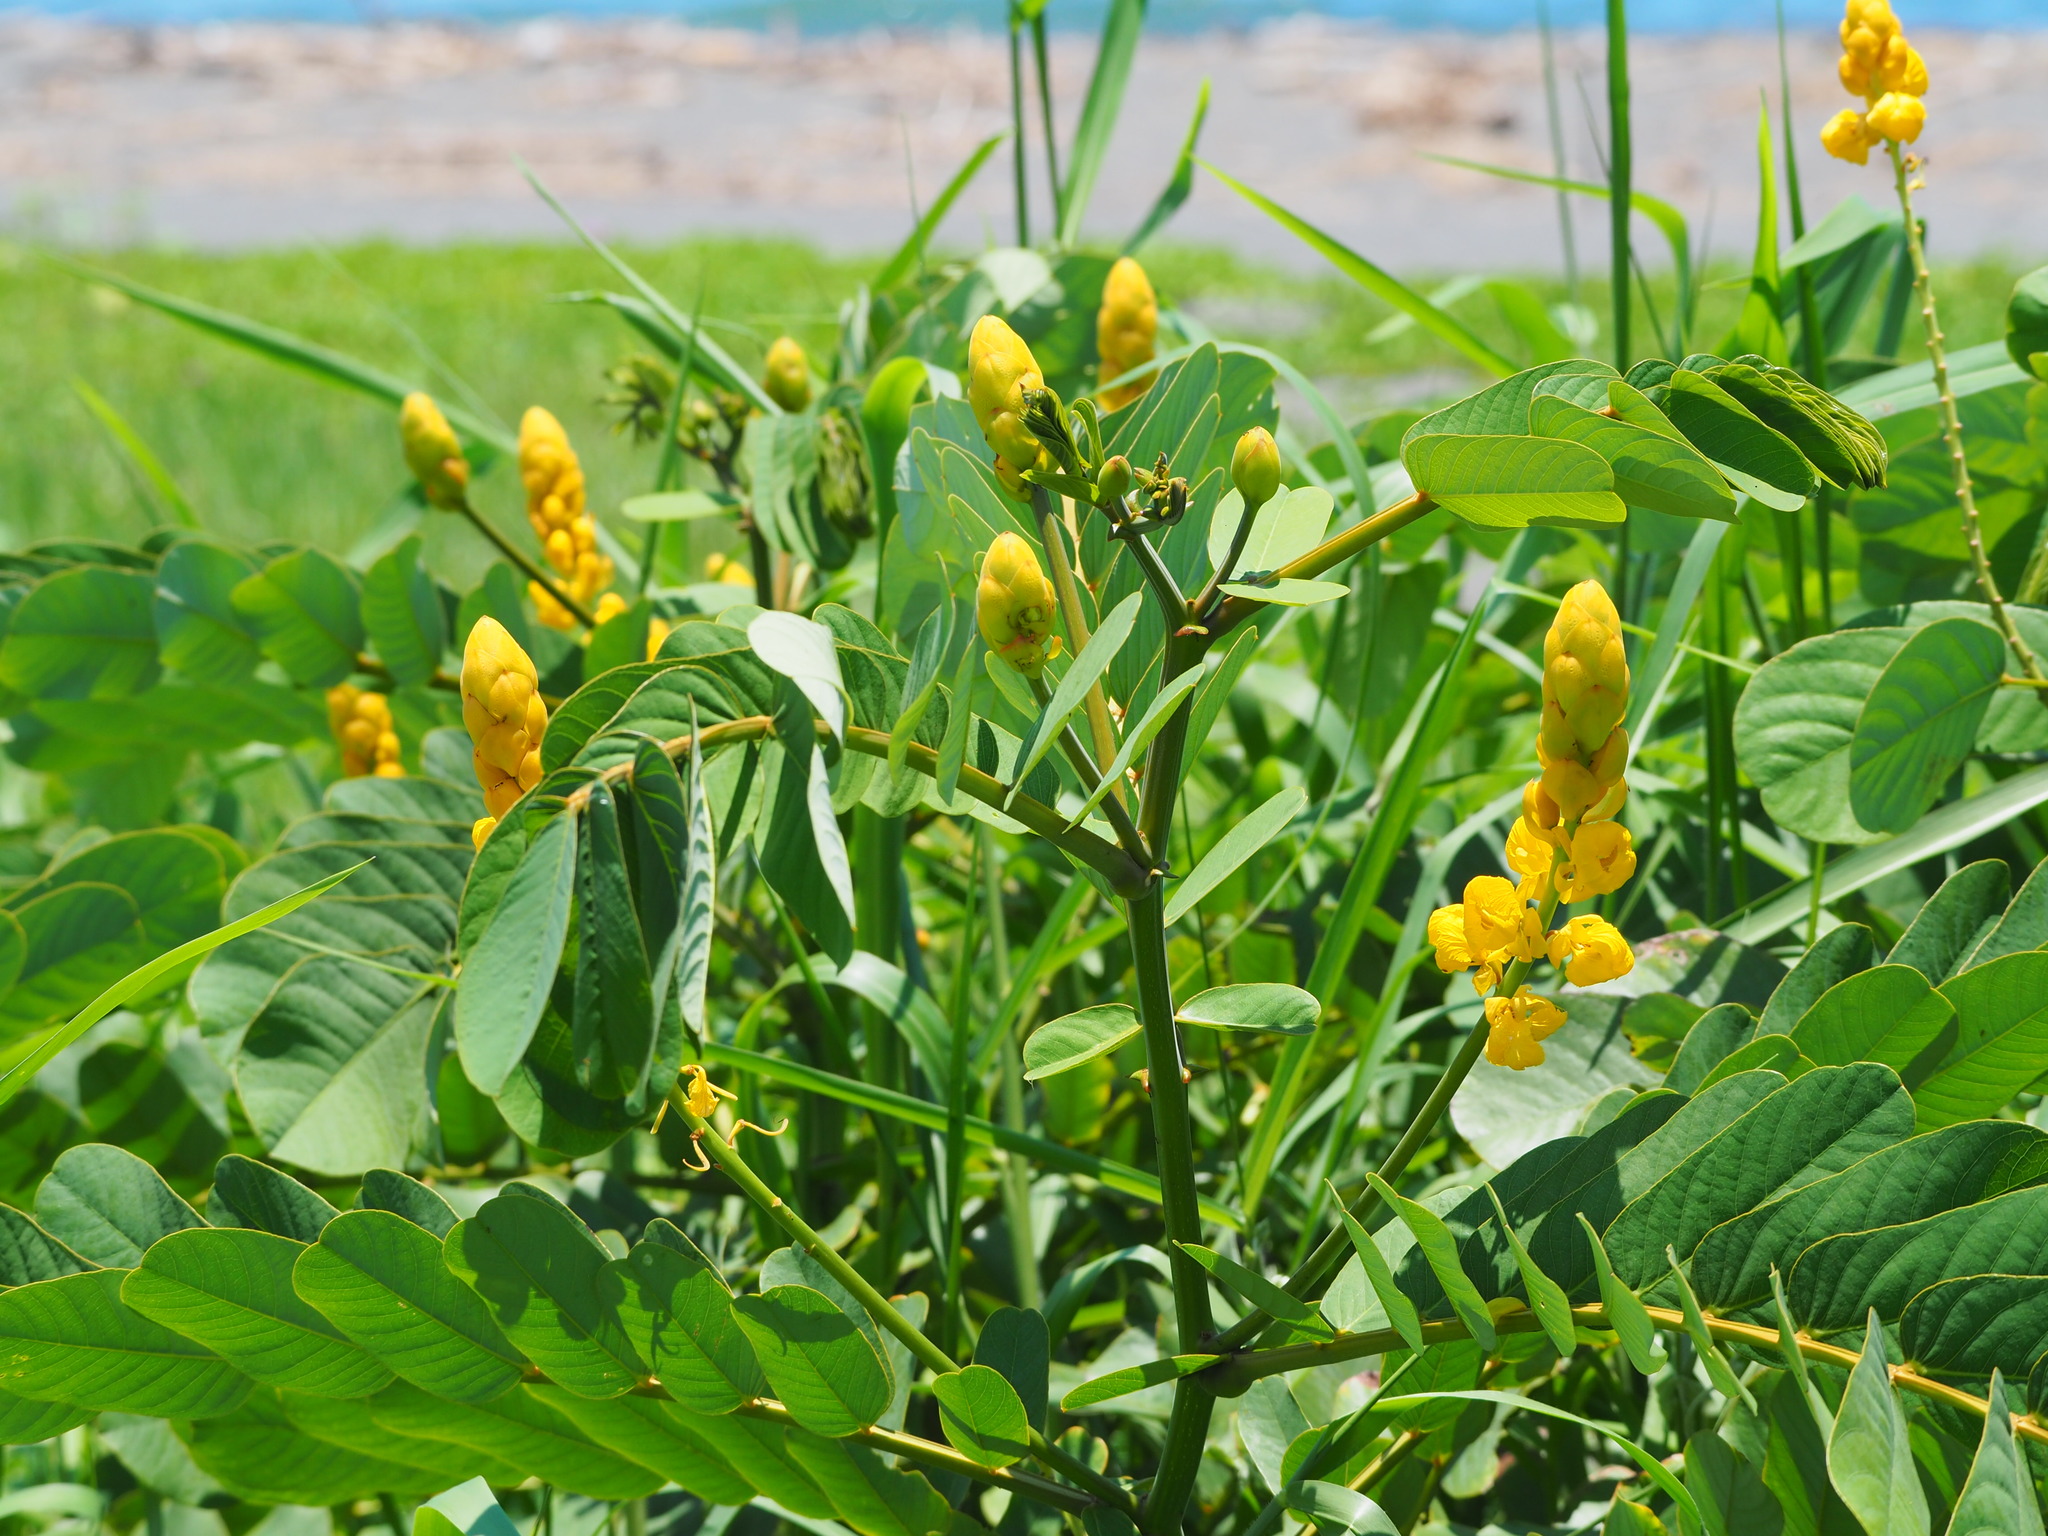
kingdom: Plantae
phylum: Tracheophyta
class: Magnoliopsida
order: Fabales
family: Fabaceae
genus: Senna
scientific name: Senna alata
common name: Emperor's candlesticks
